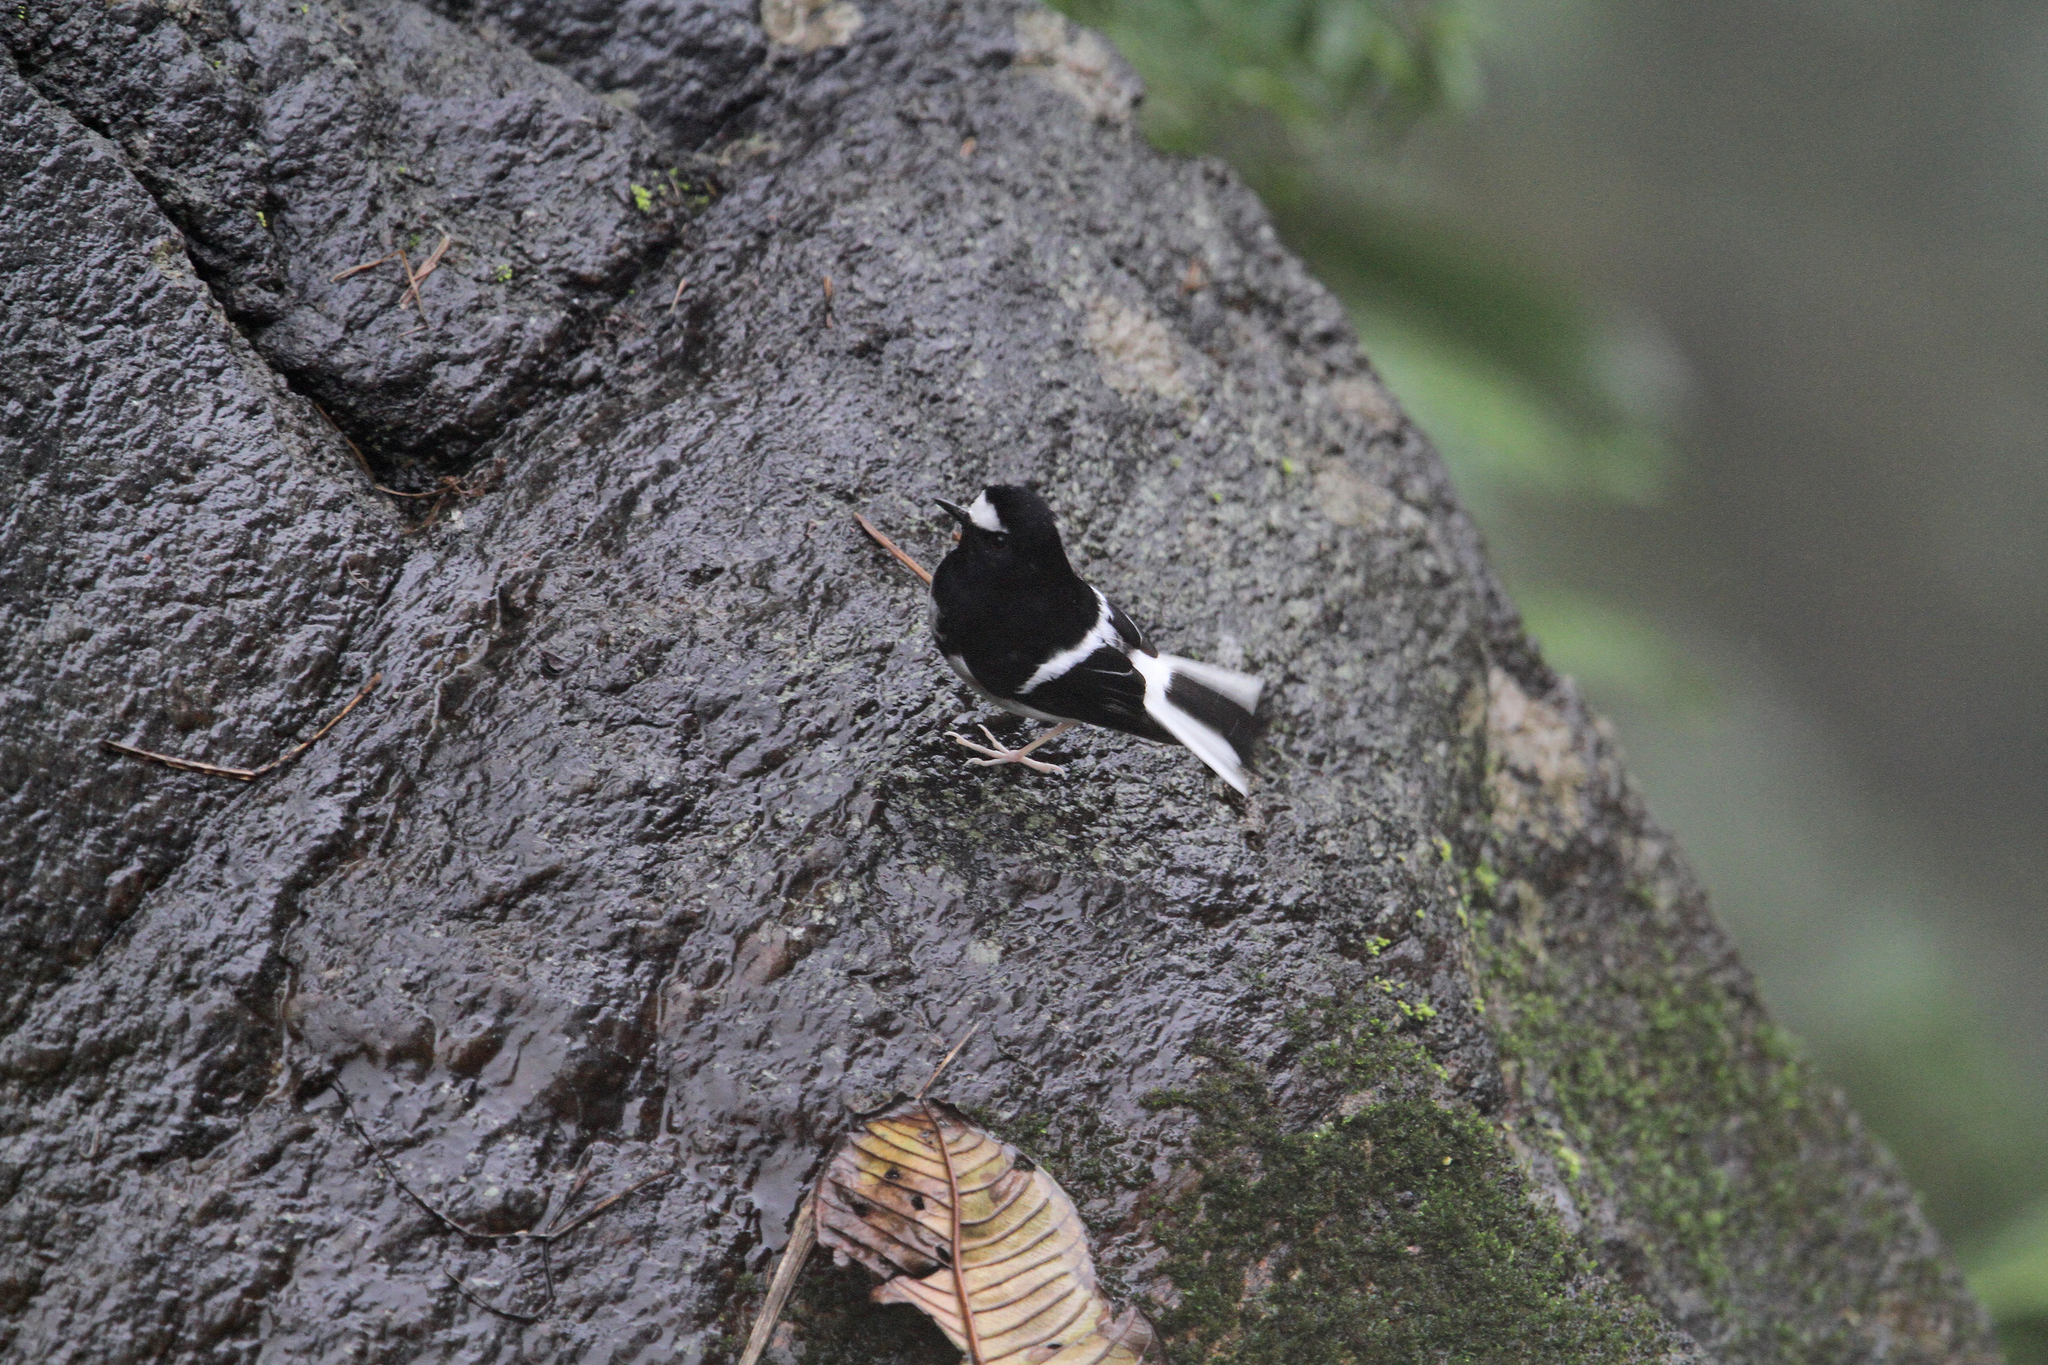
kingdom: Animalia
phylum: Chordata
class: Aves
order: Passeriformes
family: Muscicapidae
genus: Enicurus
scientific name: Enicurus scouleri
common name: Little forktail
